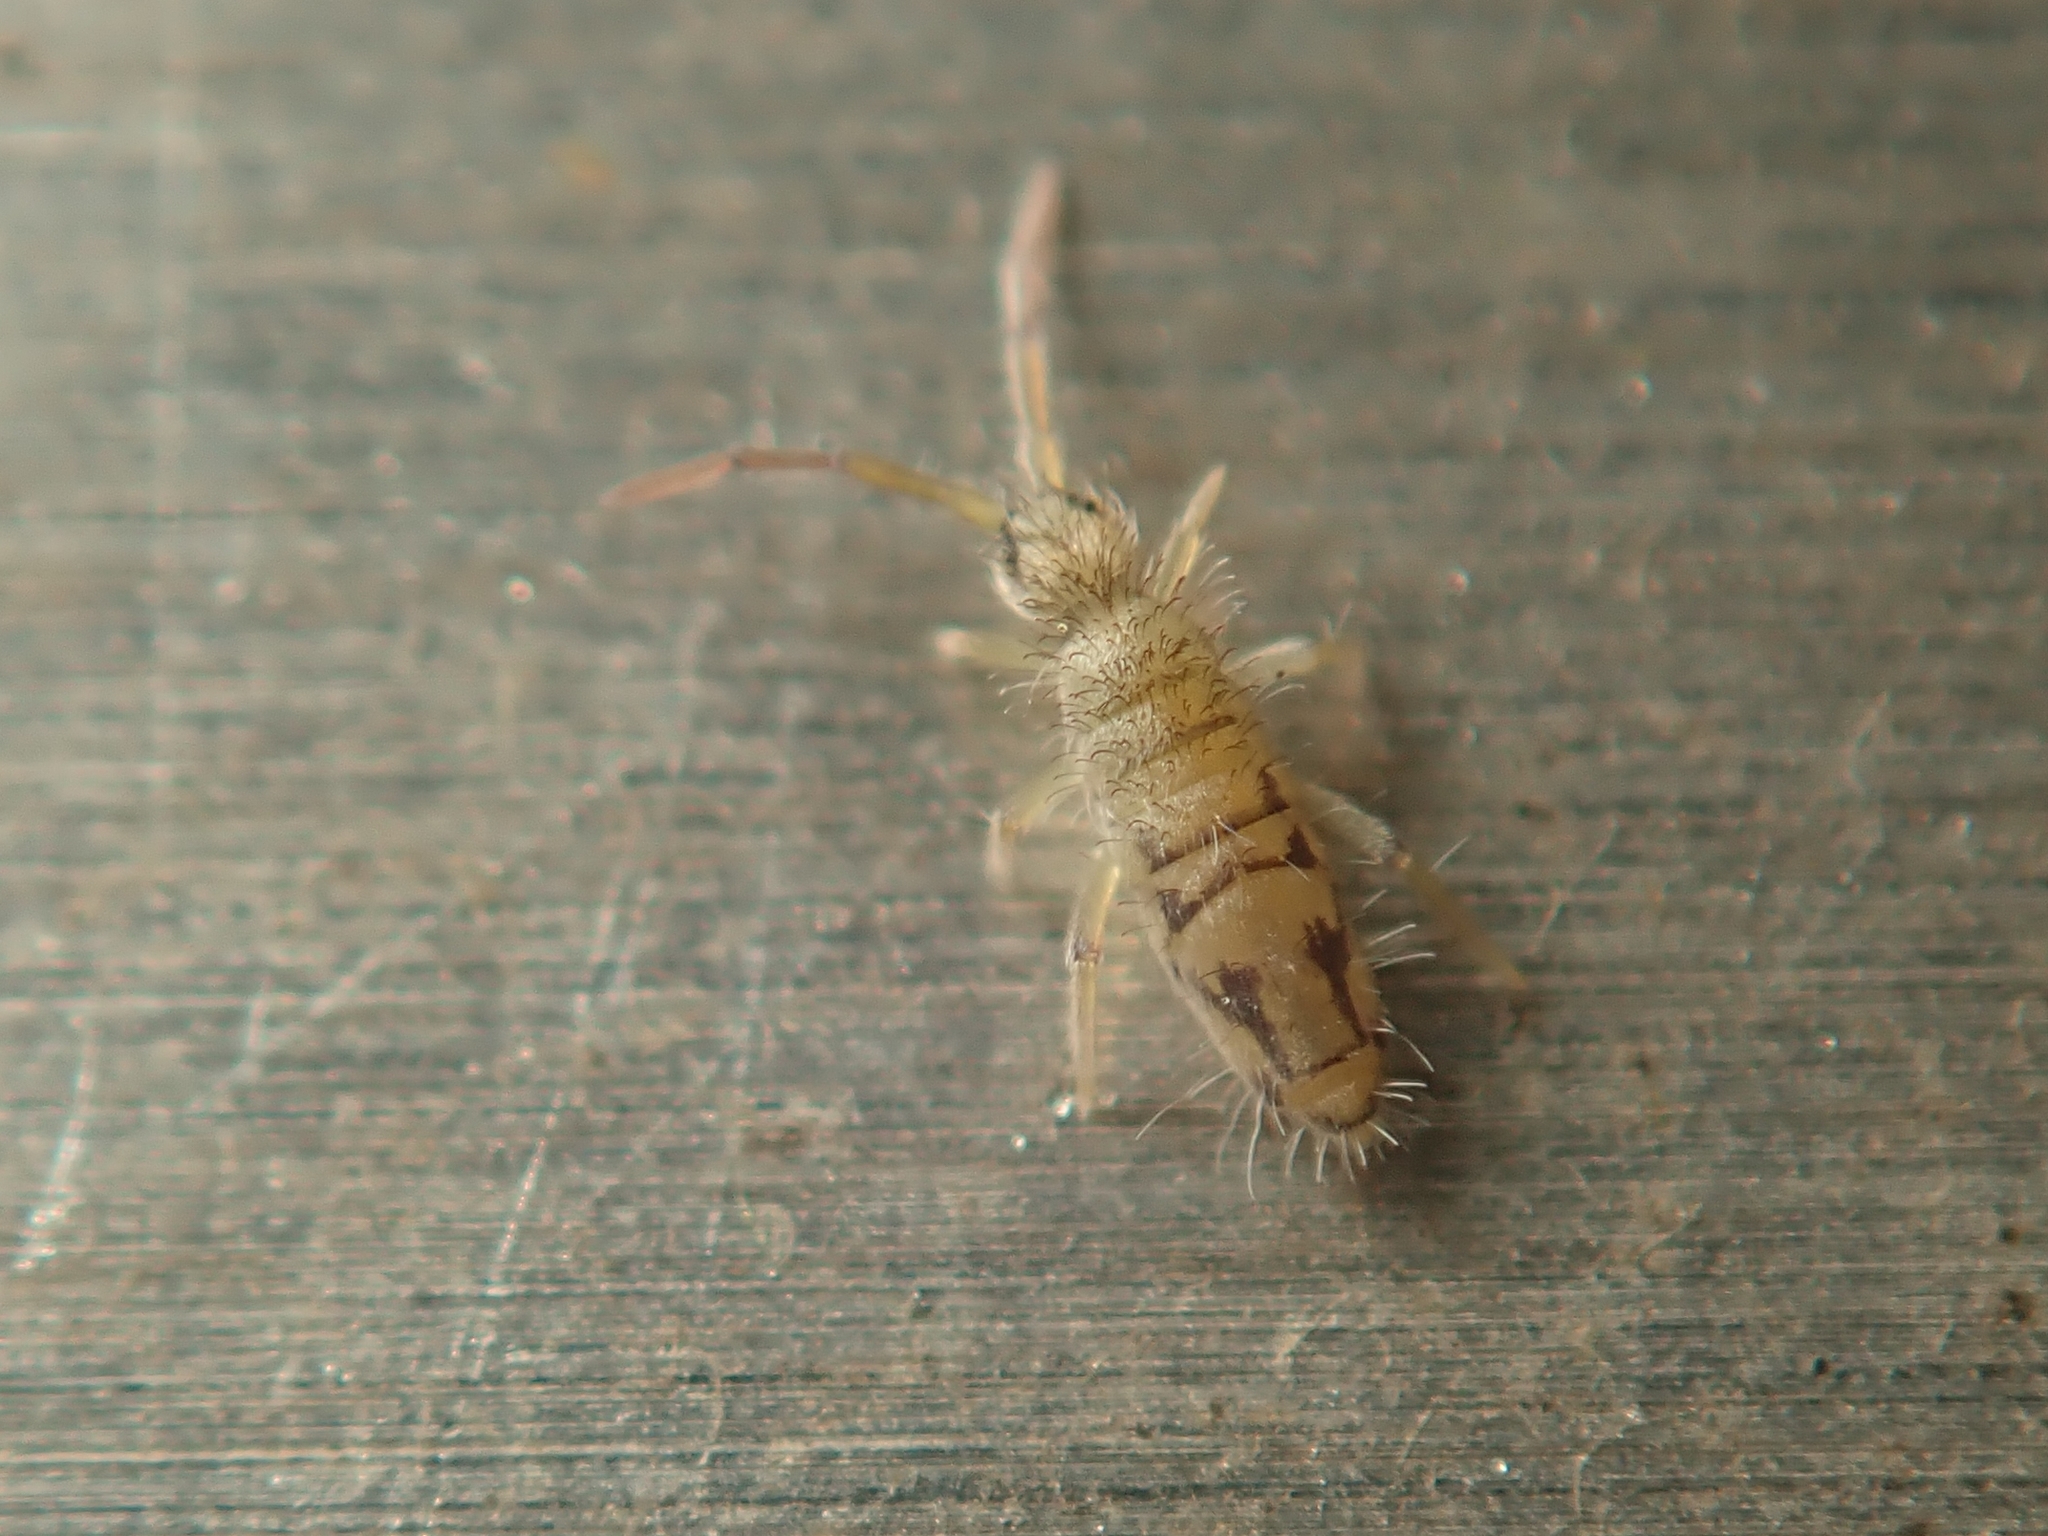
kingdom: Animalia
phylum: Arthropoda
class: Collembola
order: Entomobryomorpha
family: Entomobryidae
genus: Entomobrya
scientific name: Entomobrya nivalis
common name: Cosmopolitan springtail
